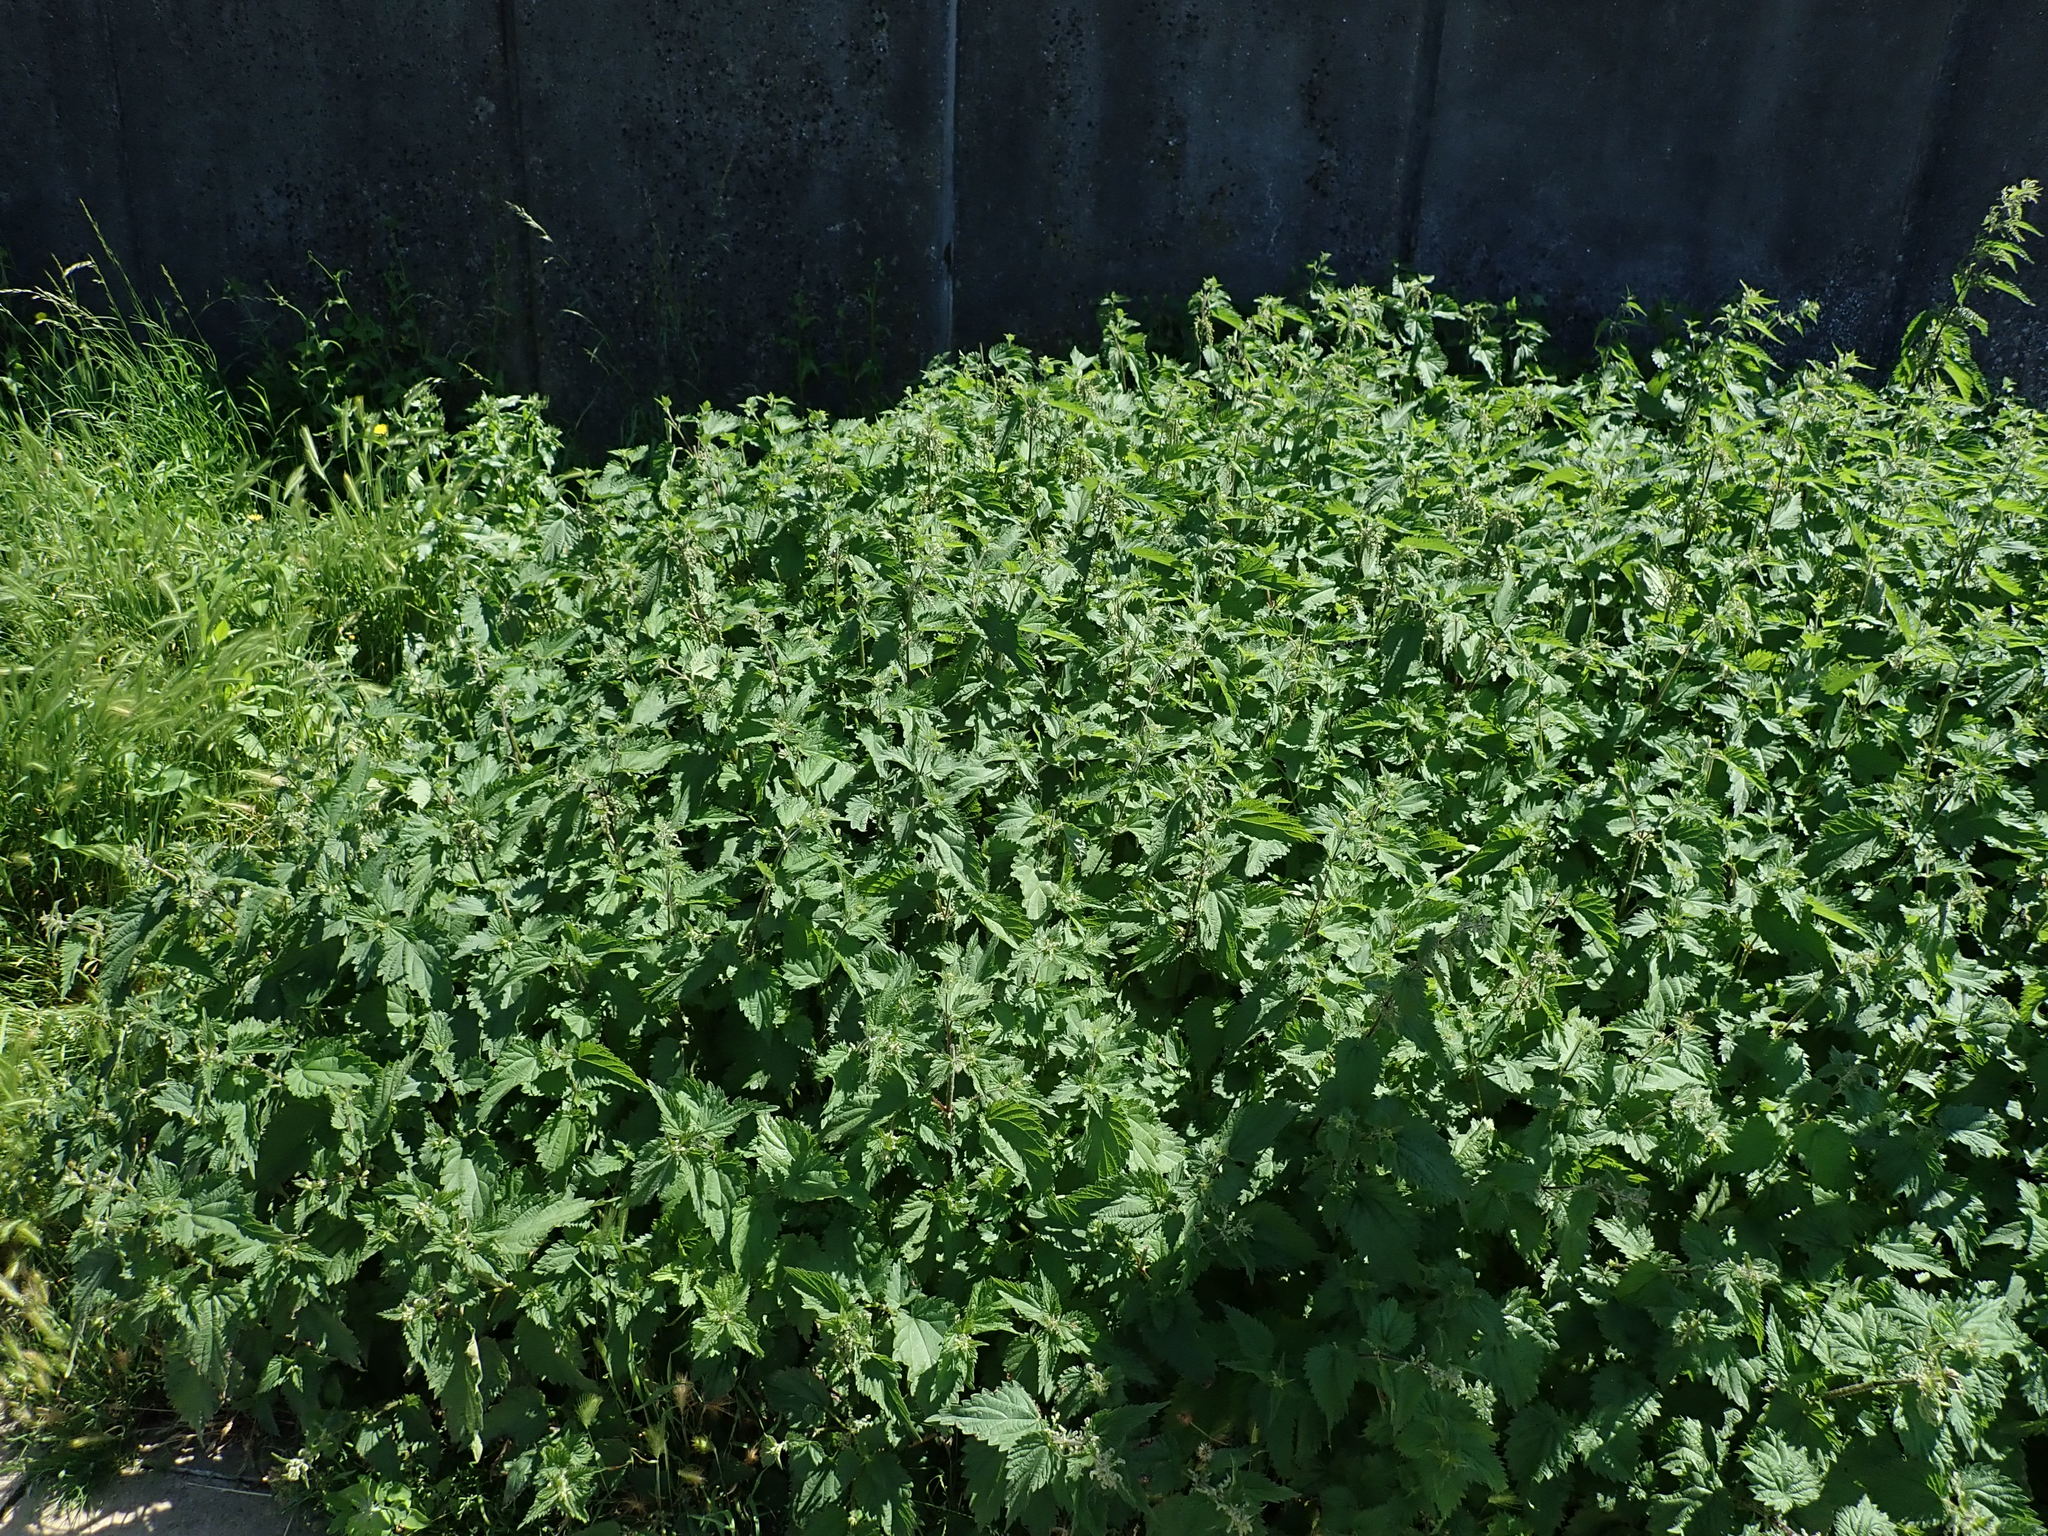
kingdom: Plantae
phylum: Tracheophyta
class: Magnoliopsida
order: Rosales
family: Urticaceae
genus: Urtica
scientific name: Urtica dioica
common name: Common nettle
